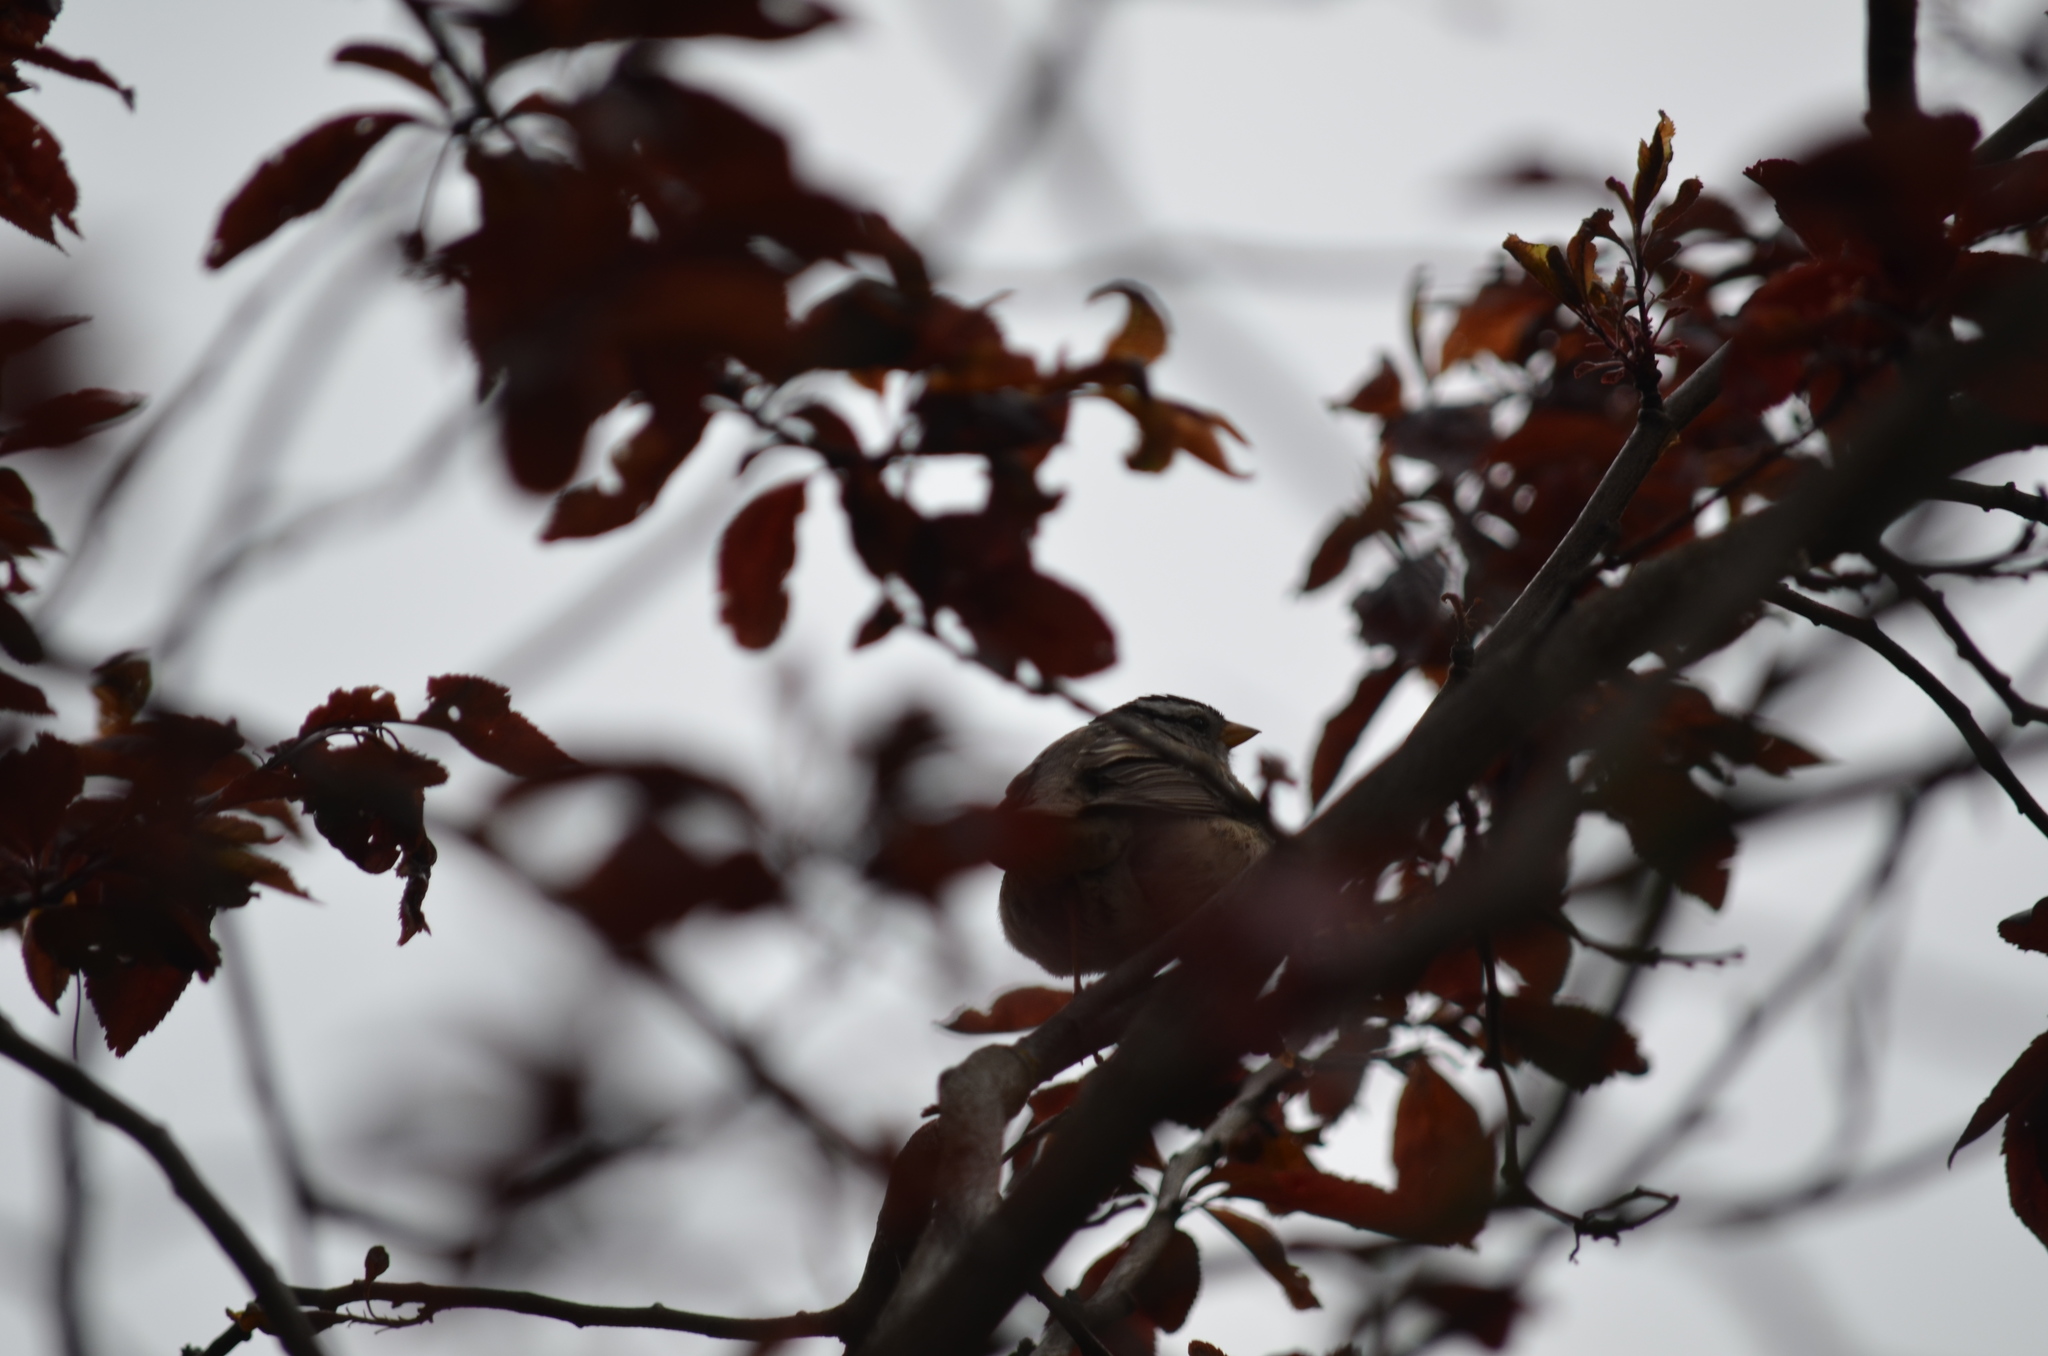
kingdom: Animalia
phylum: Chordata
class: Aves
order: Passeriformes
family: Passerellidae
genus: Zonotrichia
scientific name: Zonotrichia leucophrys
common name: White-crowned sparrow
